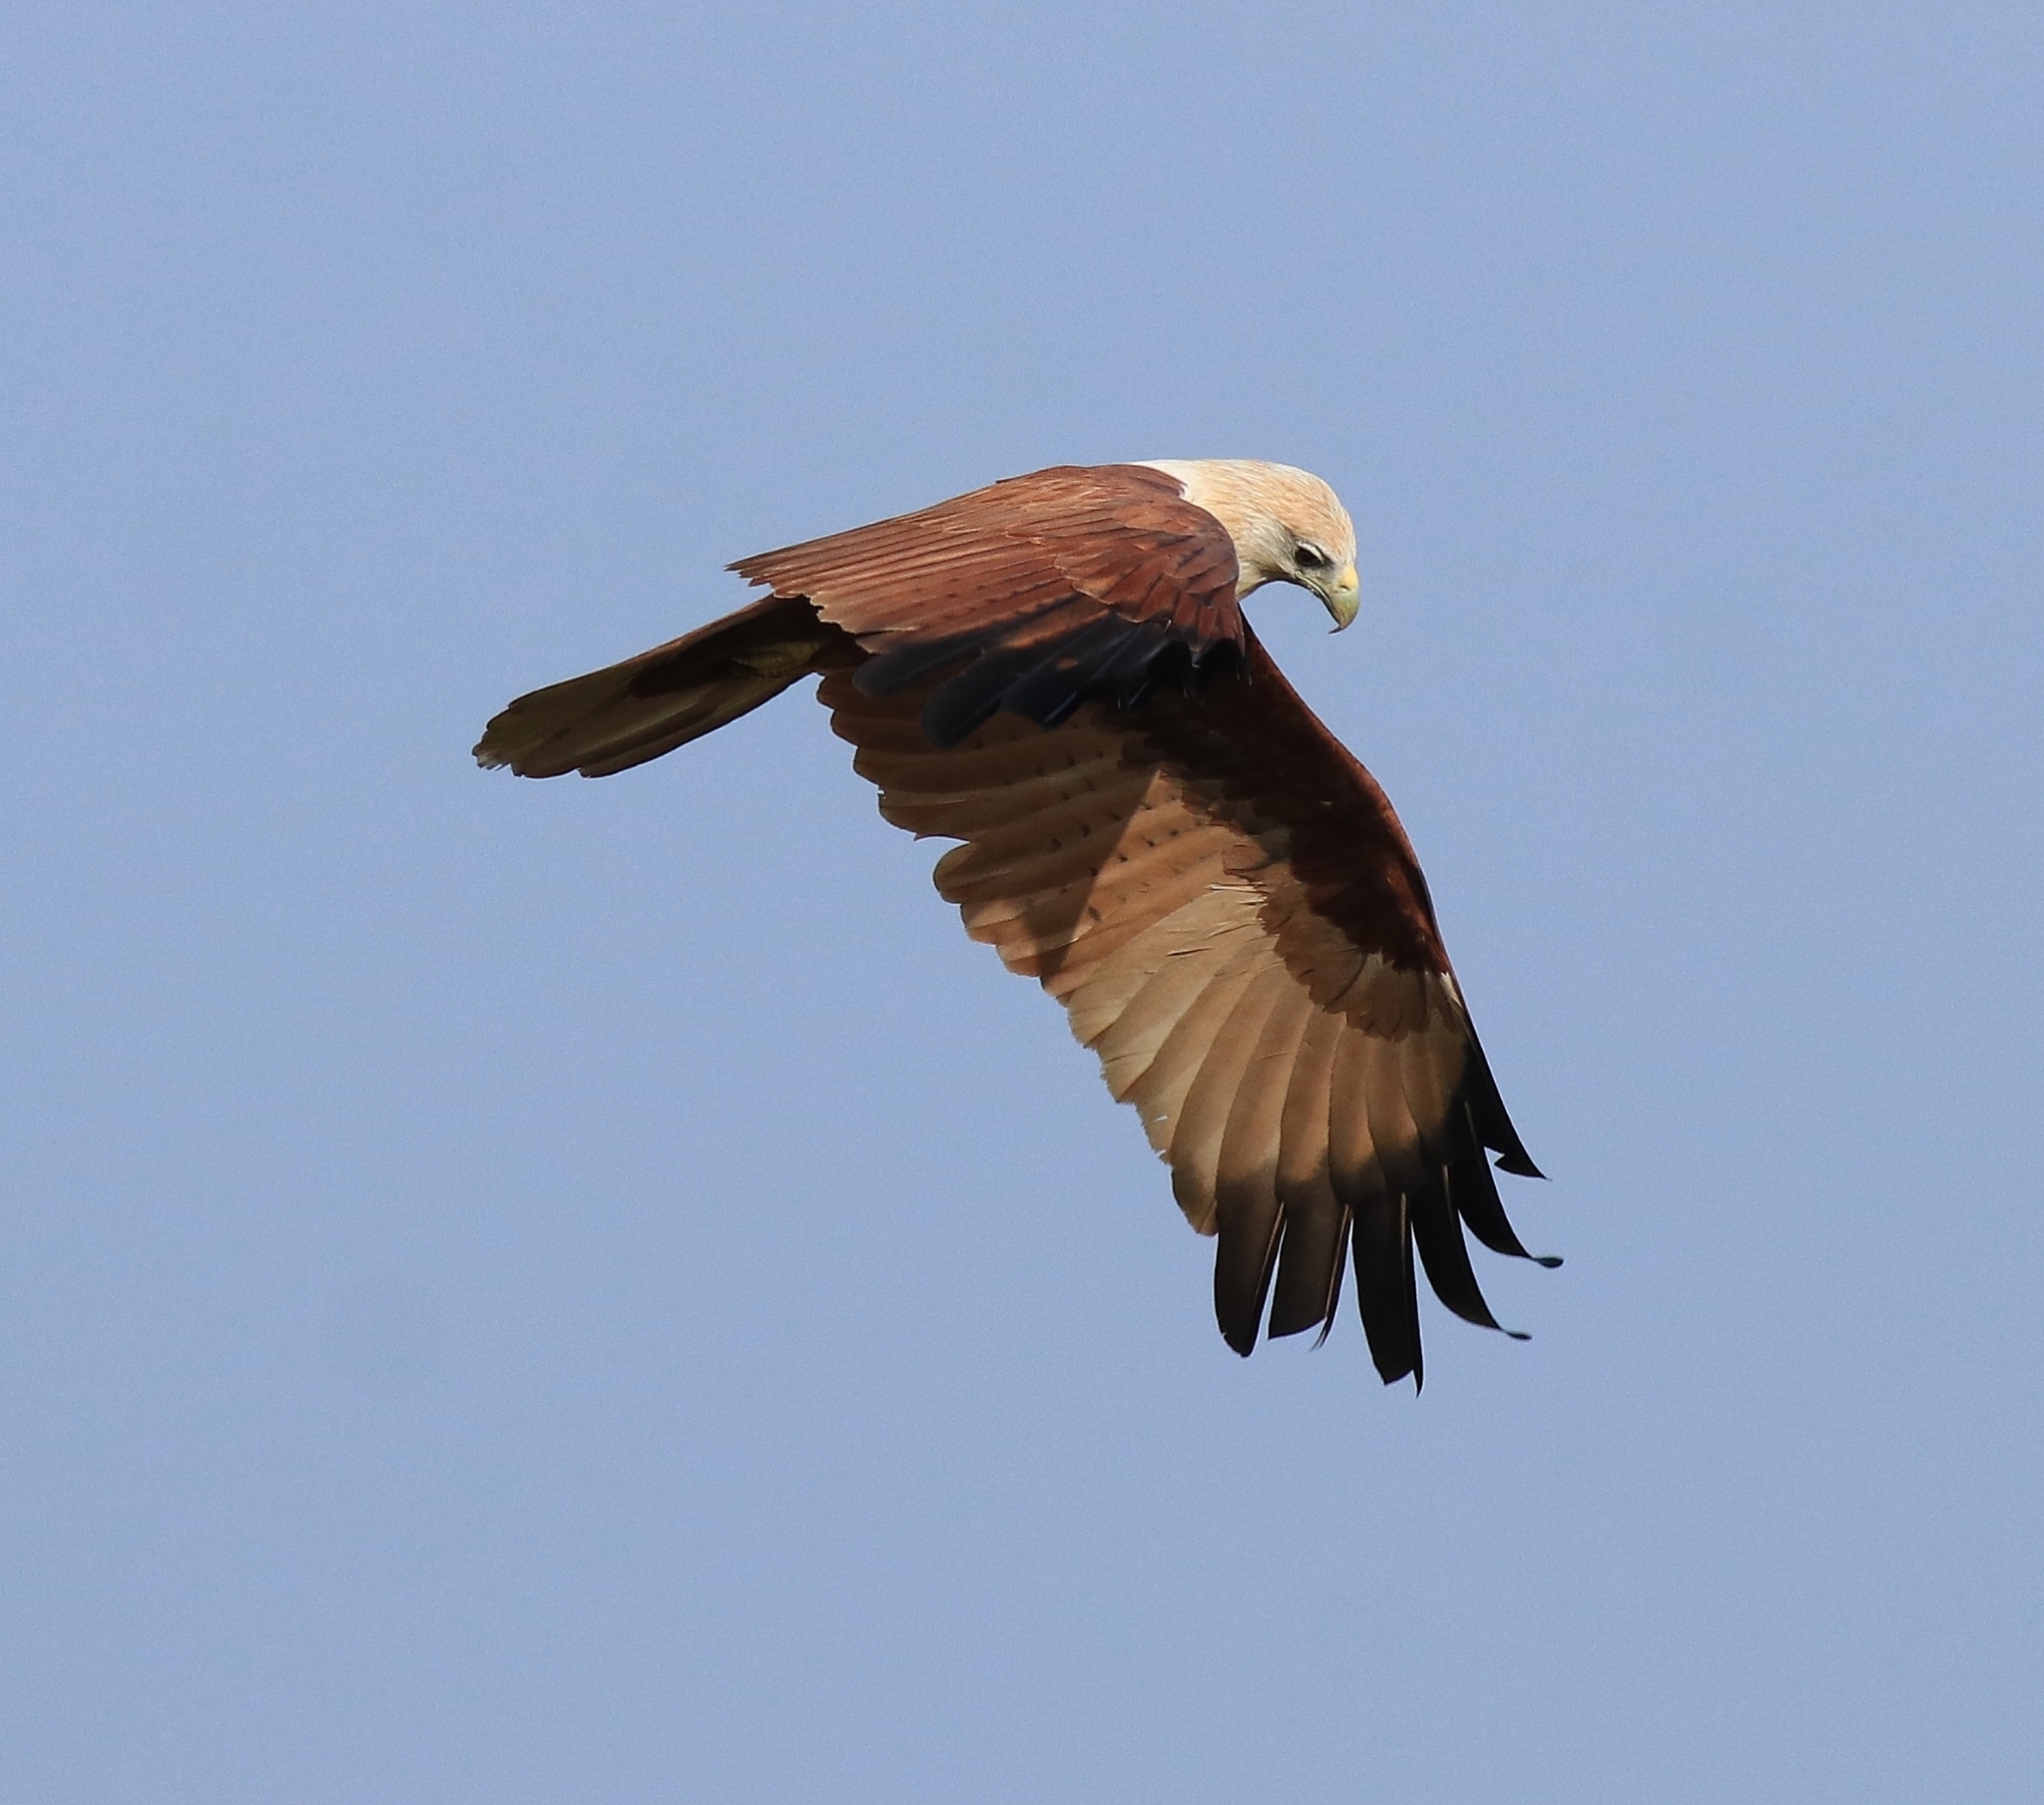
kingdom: Animalia
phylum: Chordata
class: Aves
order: Accipitriformes
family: Accipitridae
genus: Haliastur
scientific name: Haliastur indus
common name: Brahminy kite
